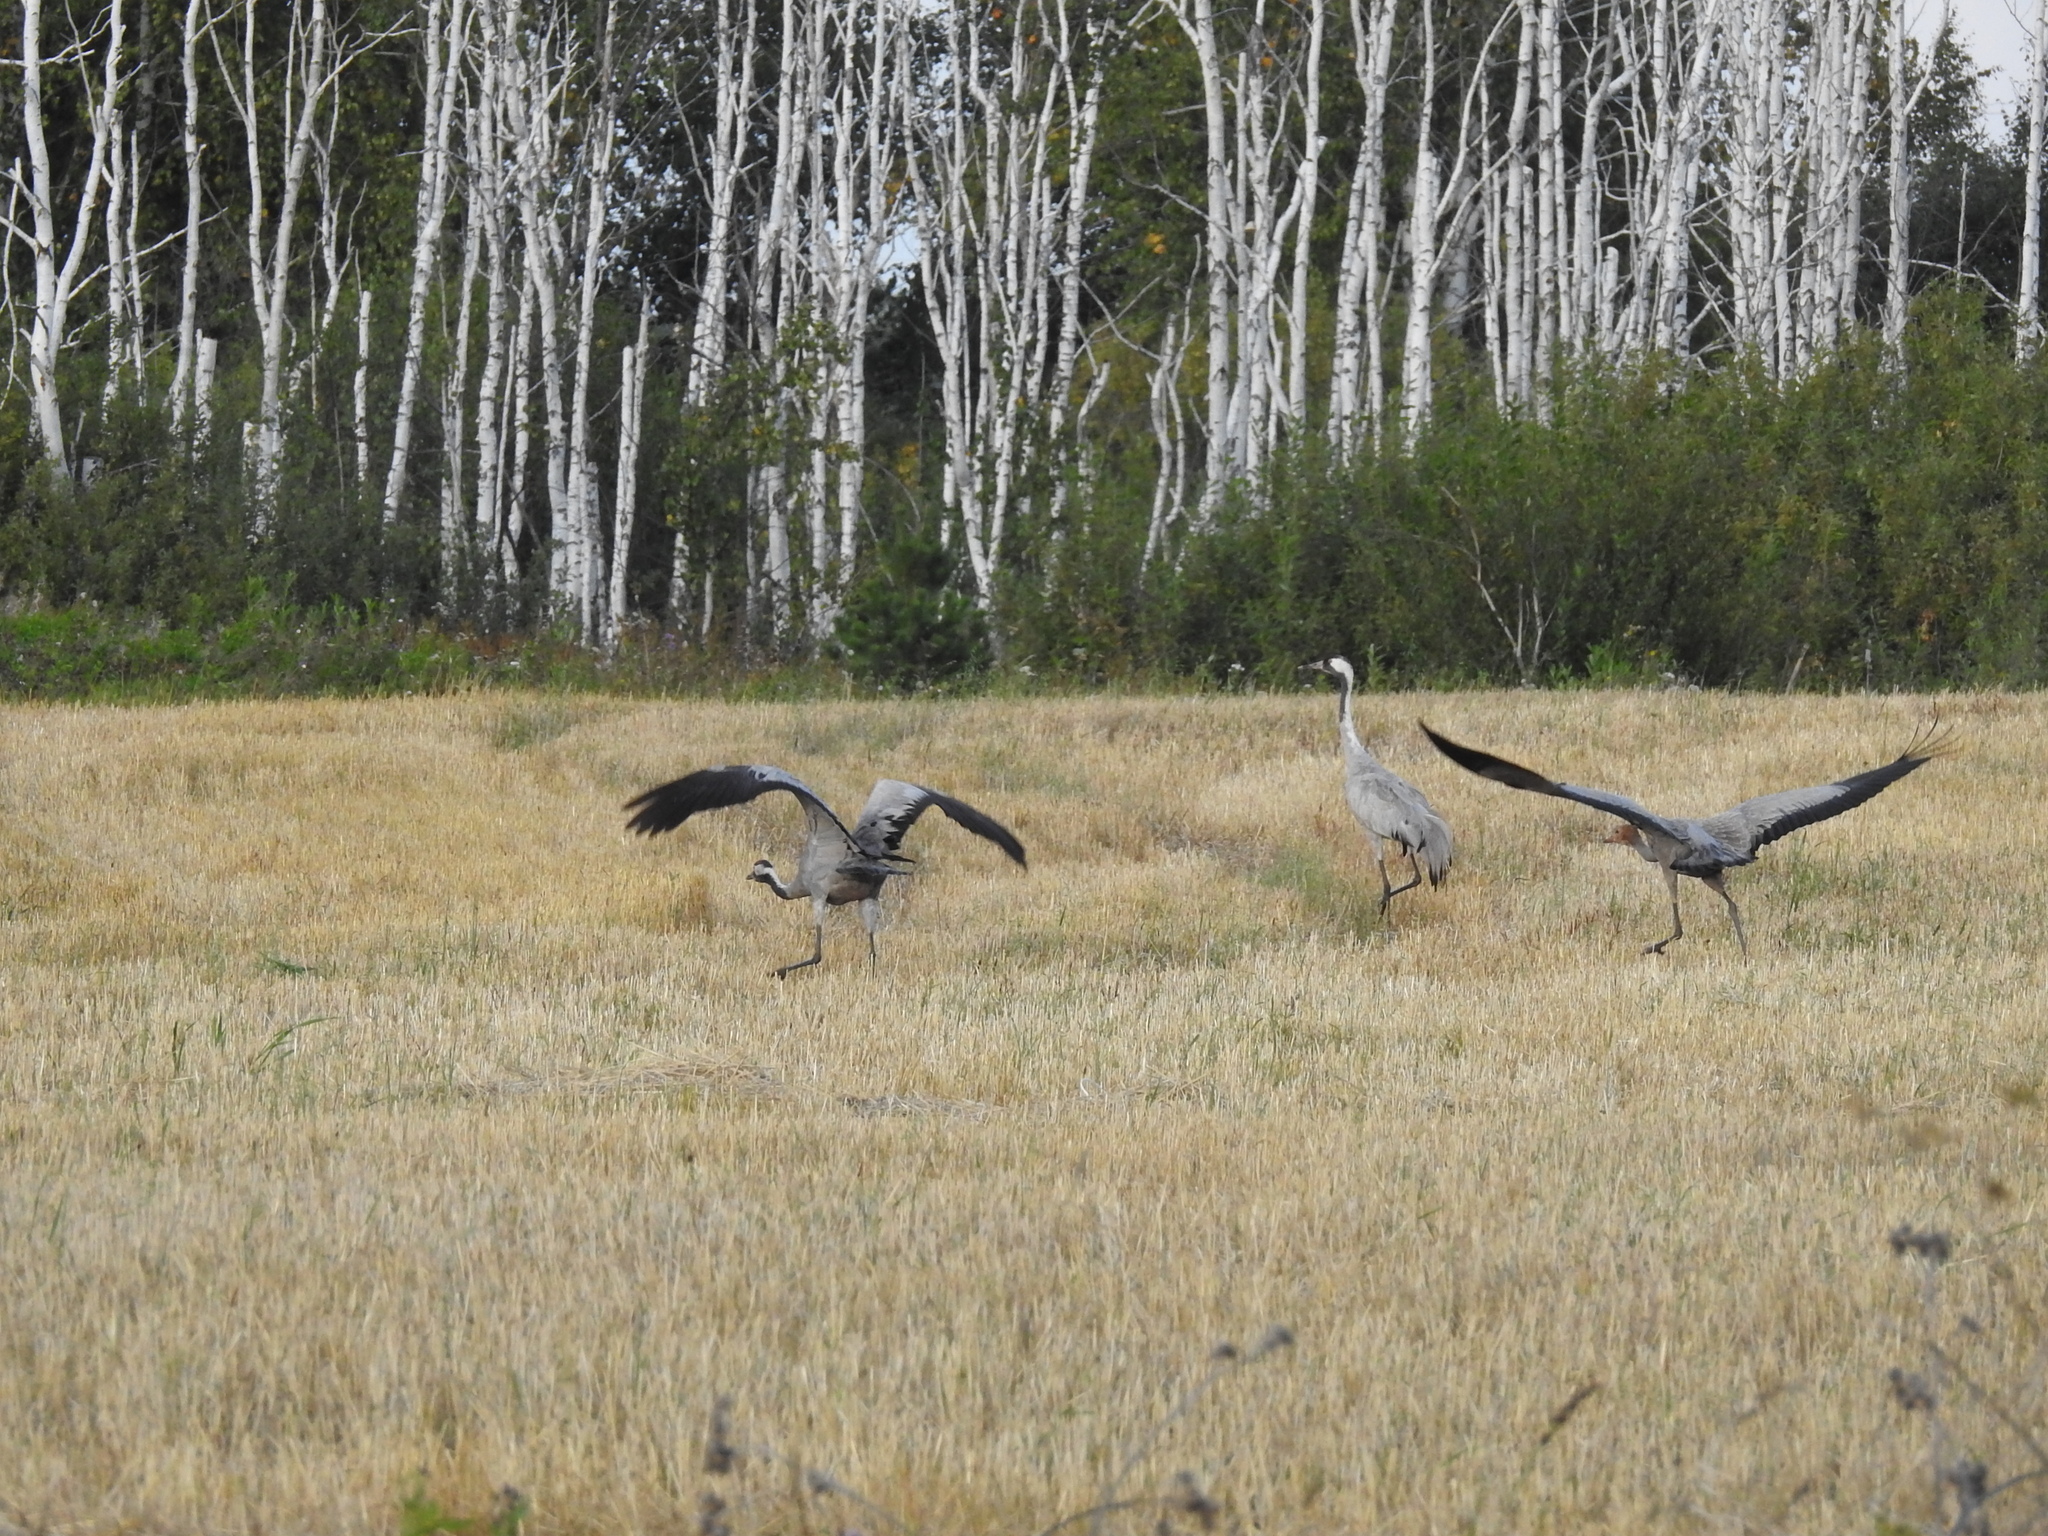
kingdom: Animalia
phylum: Chordata
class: Aves
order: Gruiformes
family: Gruidae
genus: Grus
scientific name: Grus grus
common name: Common crane
